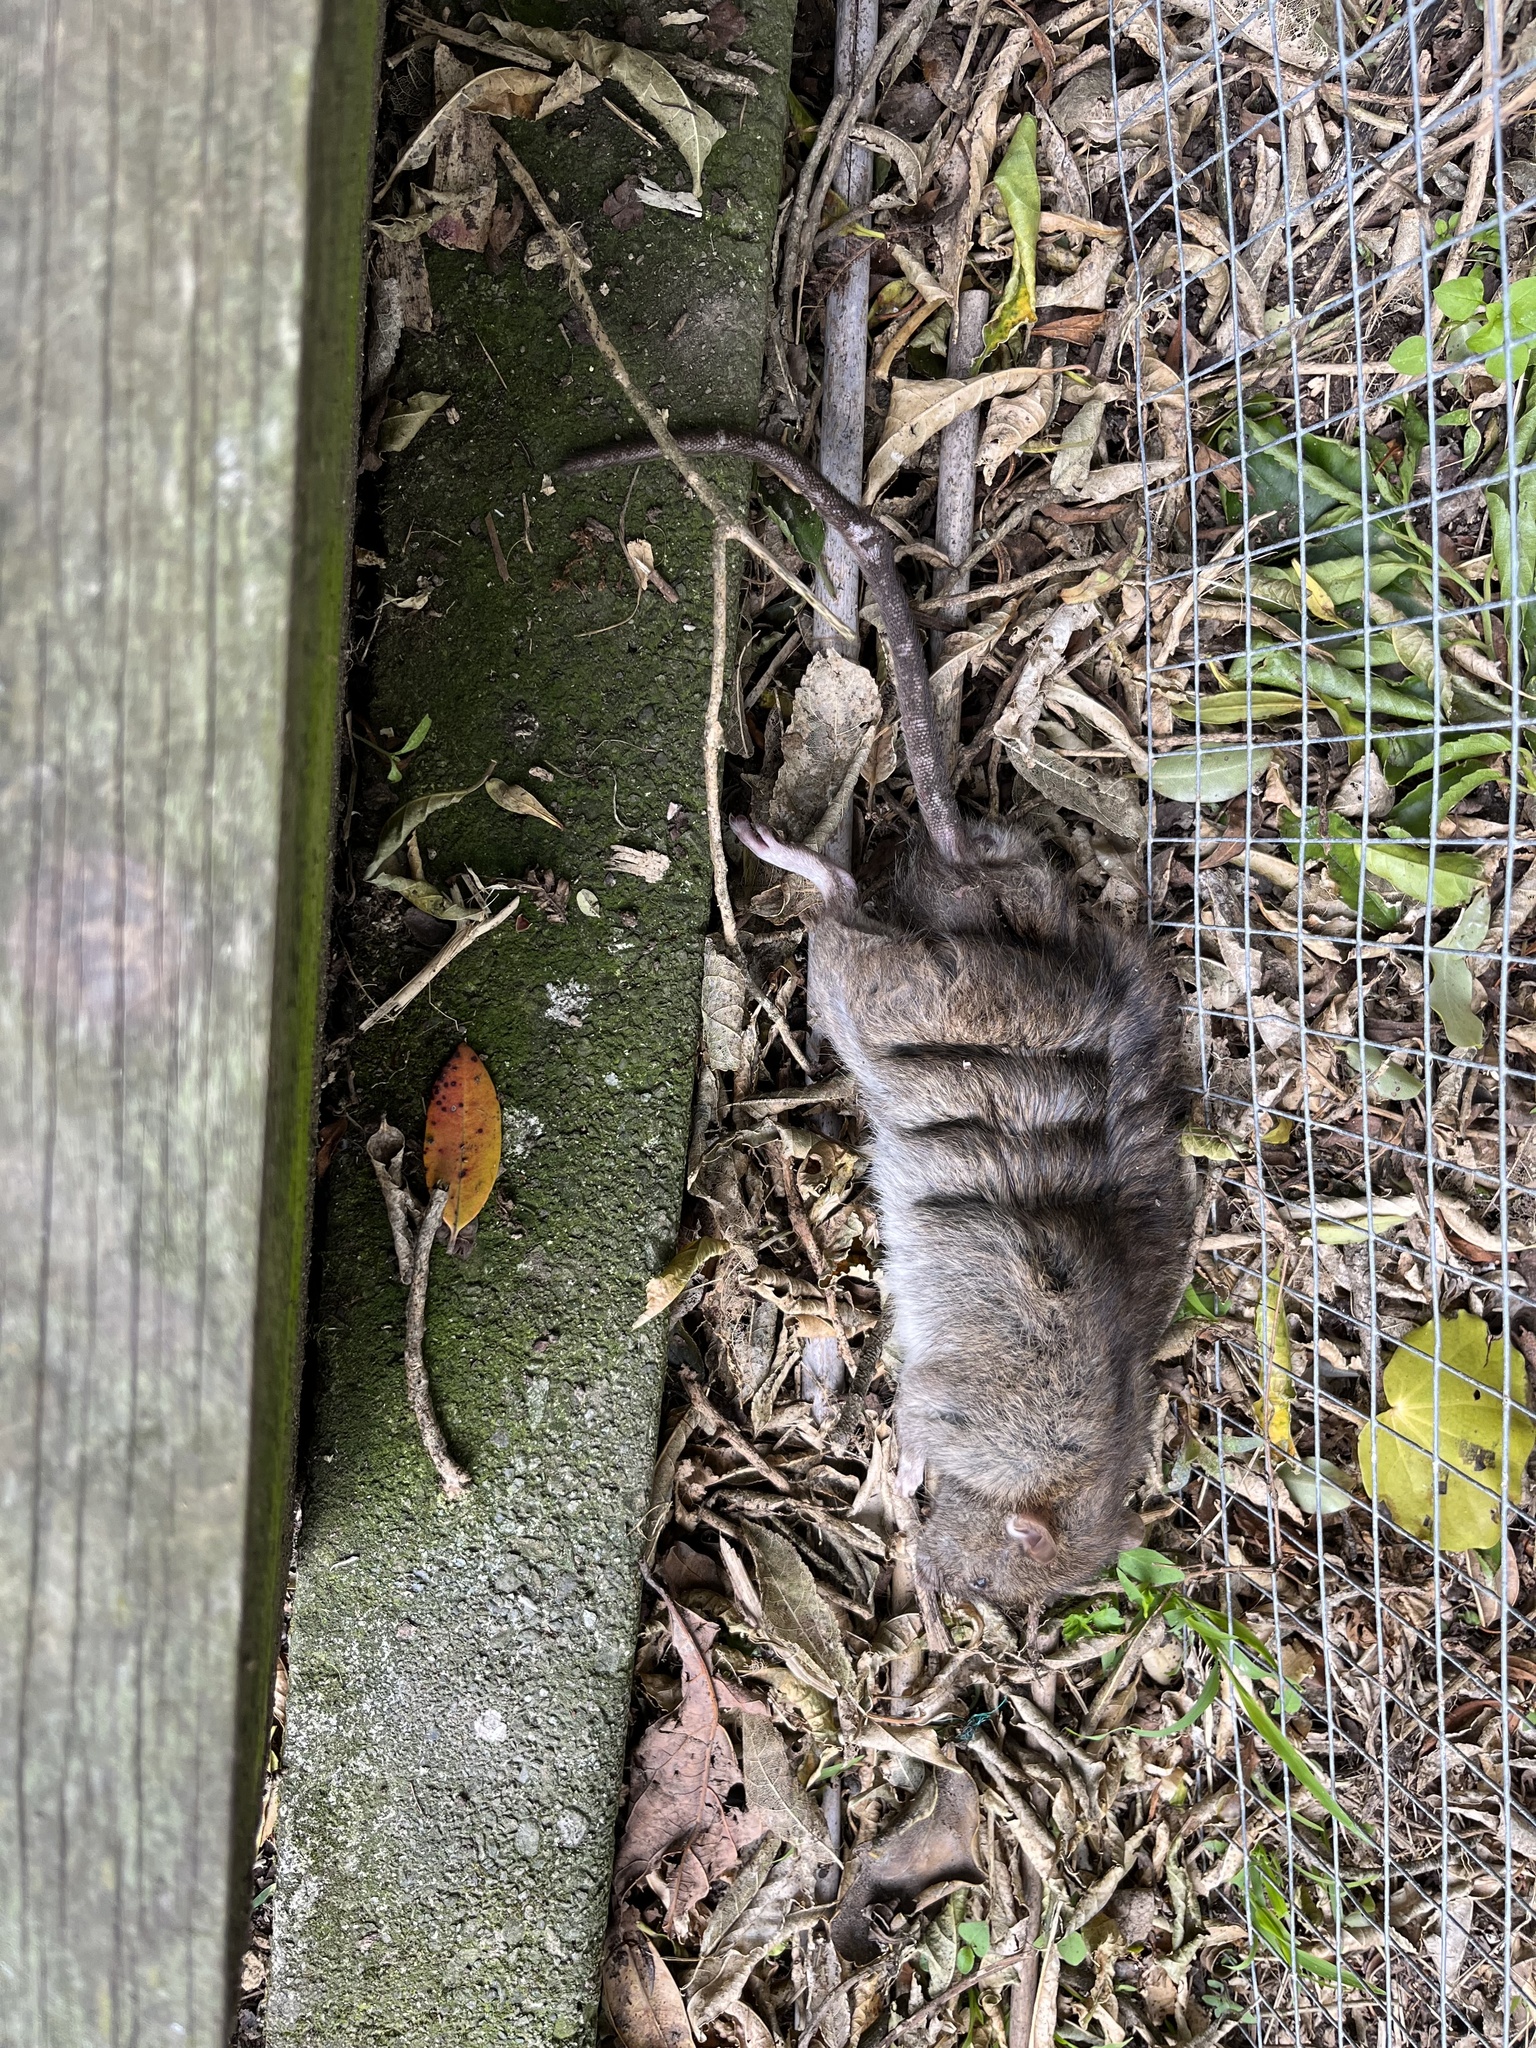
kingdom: Animalia
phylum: Chordata
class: Mammalia
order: Rodentia
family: Muridae
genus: Rattus
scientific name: Rattus norvegicus
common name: Brown rat
